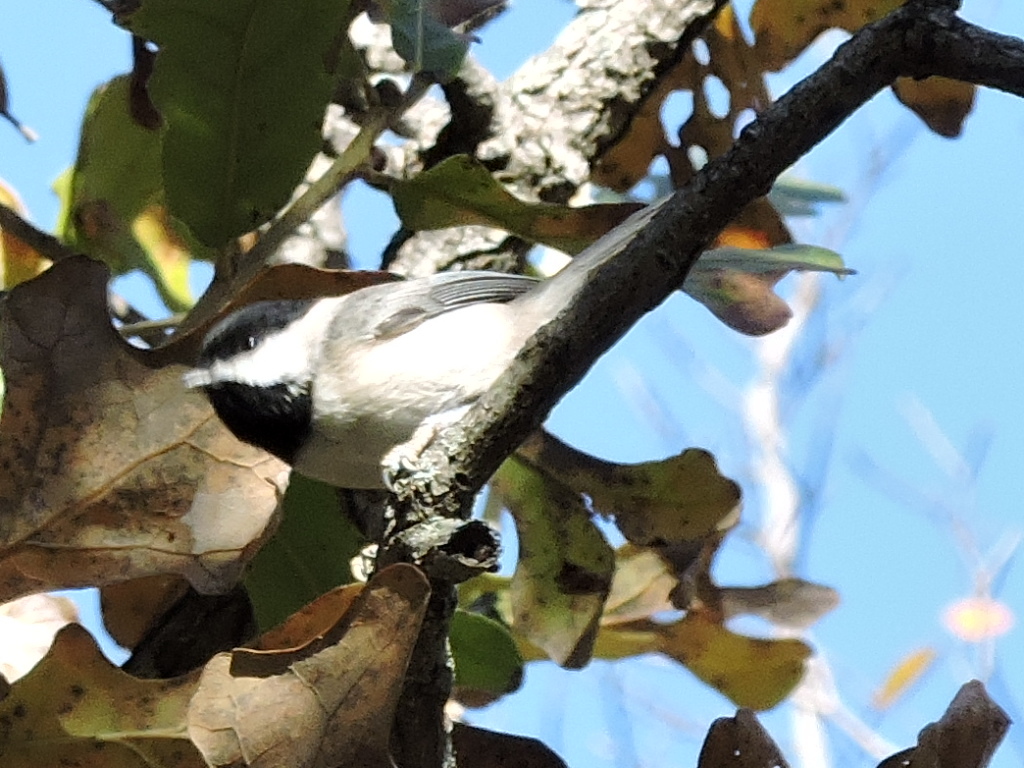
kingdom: Animalia
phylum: Chordata
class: Aves
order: Passeriformes
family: Paridae
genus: Poecile
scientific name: Poecile carolinensis
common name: Carolina chickadee
